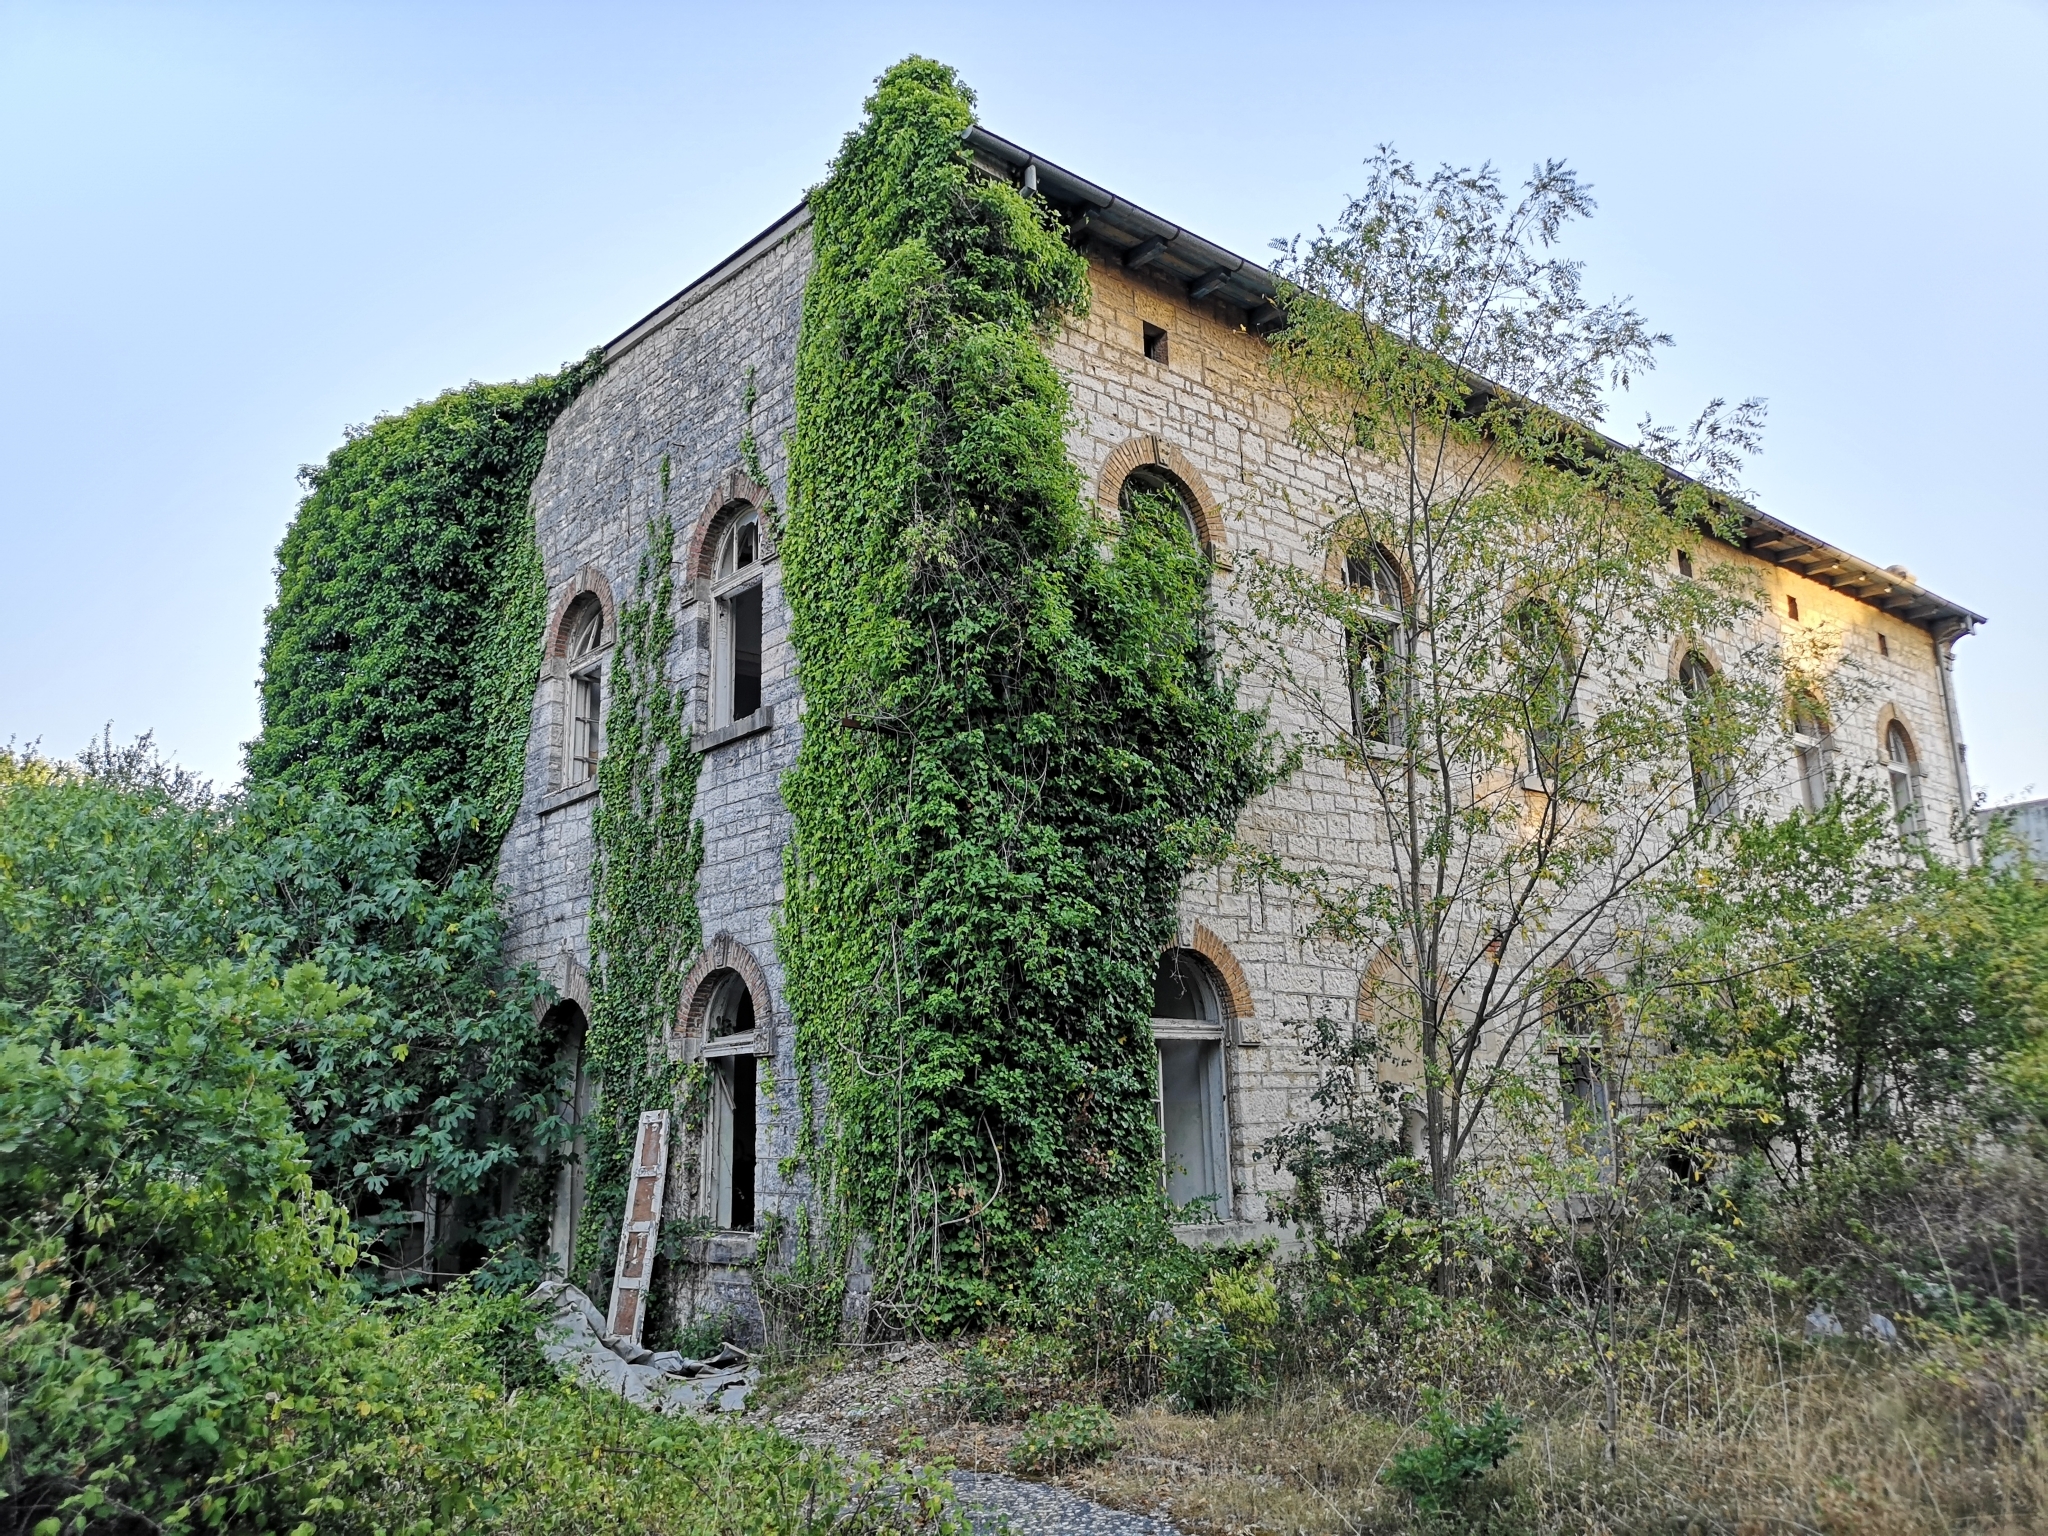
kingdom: Plantae
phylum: Tracheophyta
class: Magnoliopsida
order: Apiales
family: Araliaceae
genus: Hedera
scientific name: Hedera helix
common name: Ivy
